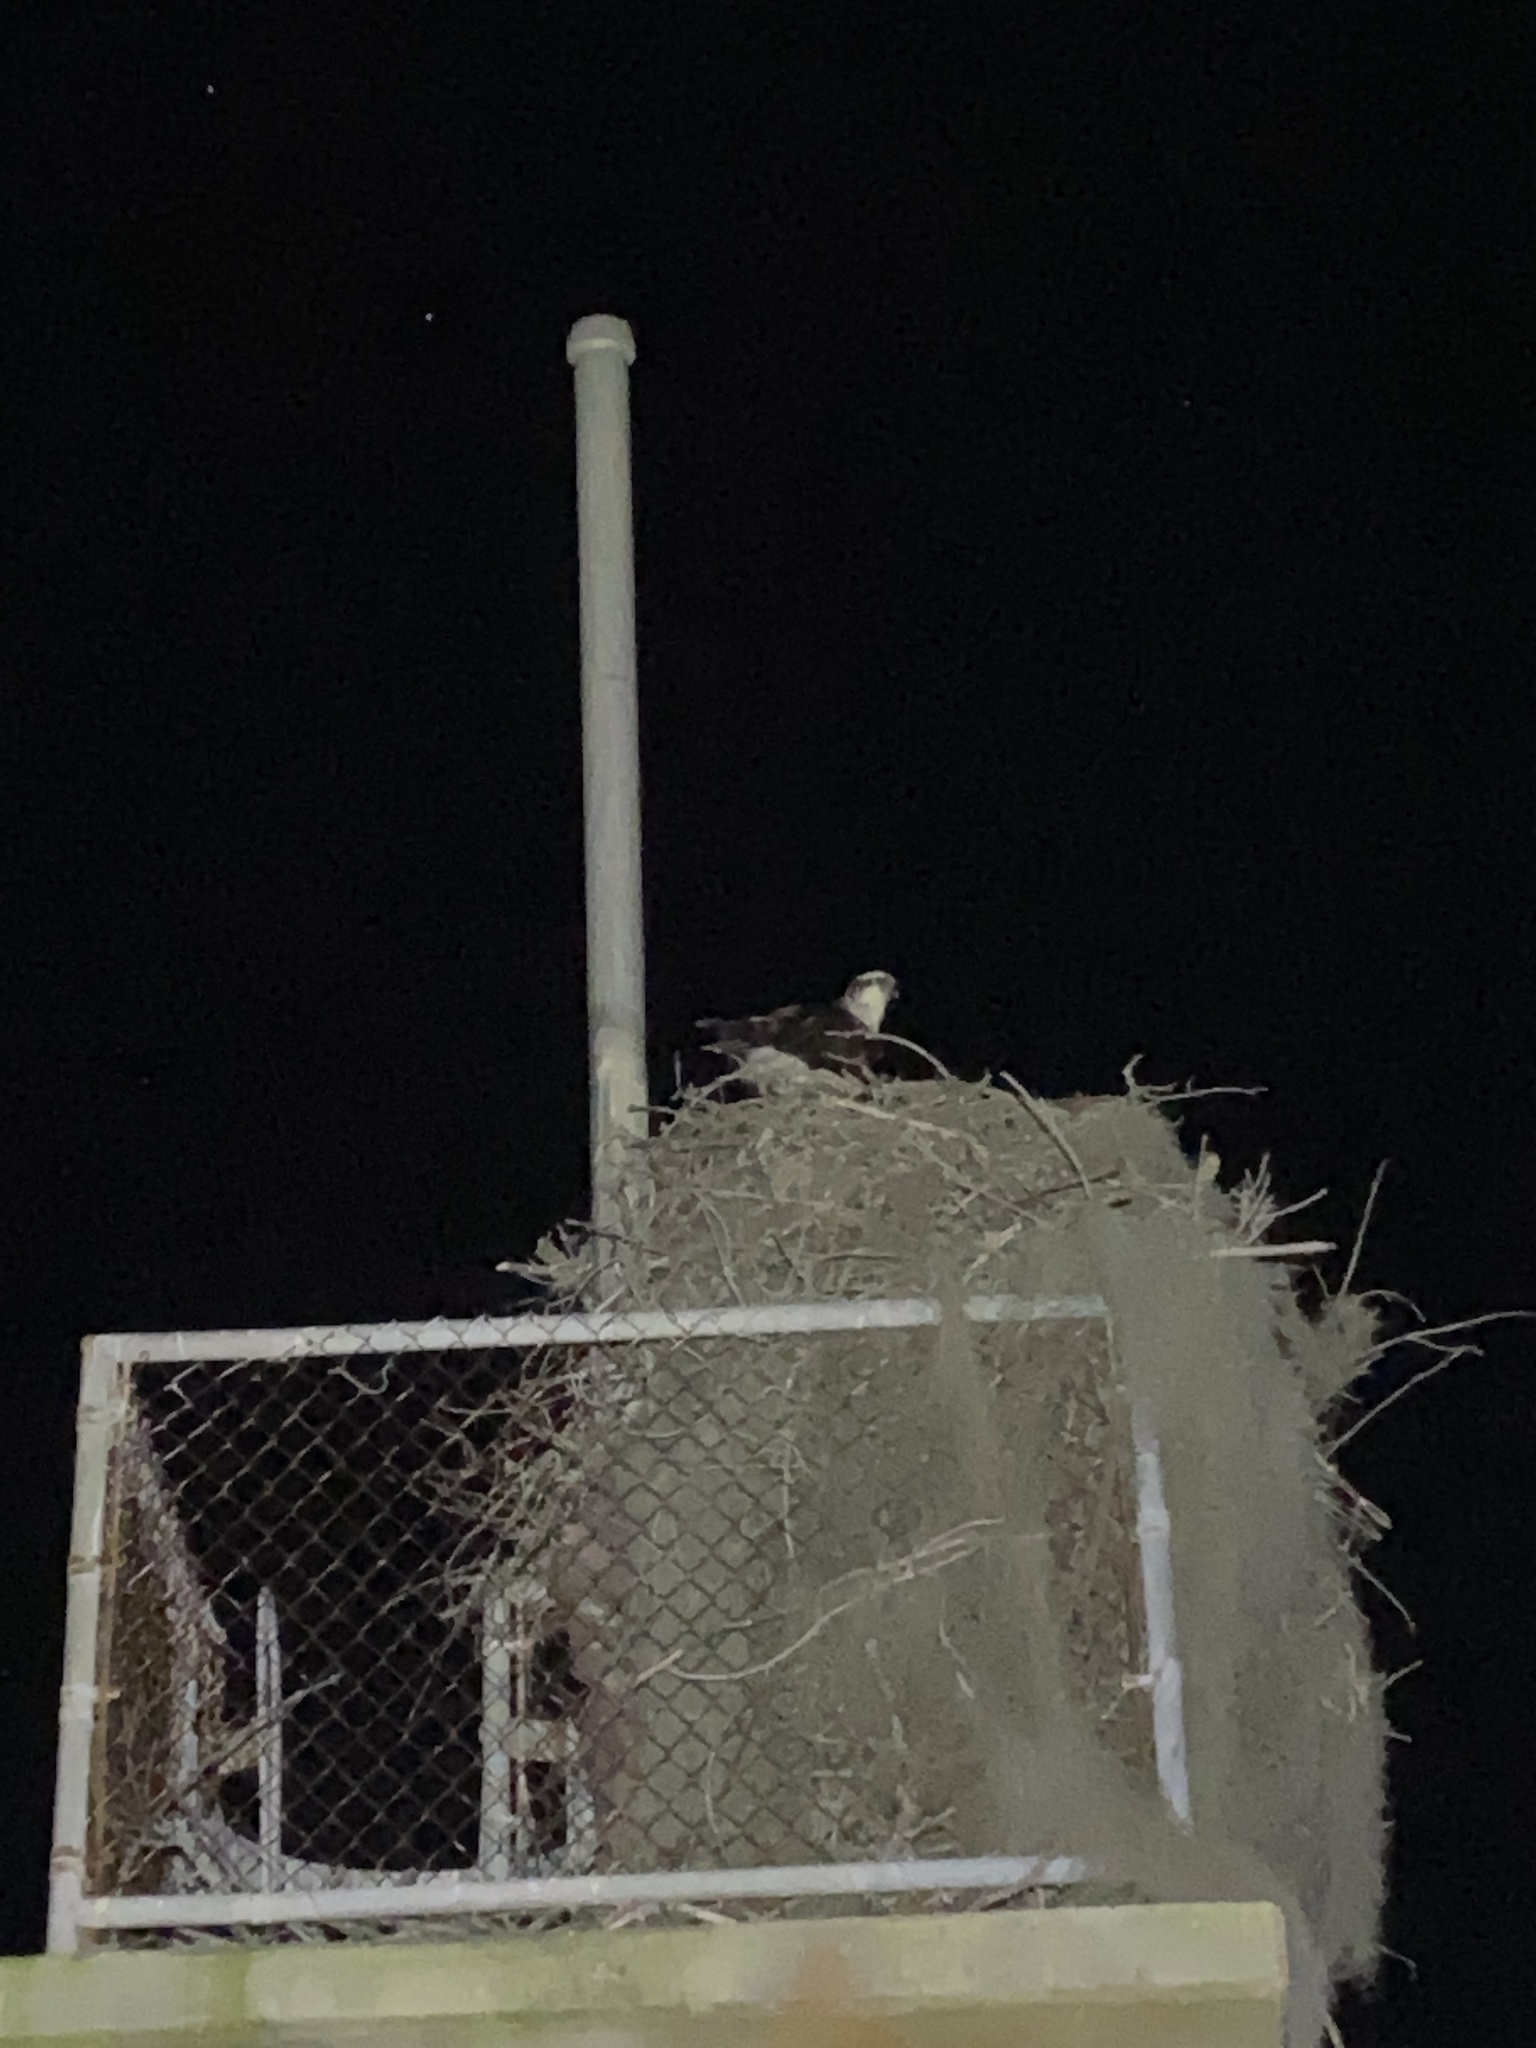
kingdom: Animalia
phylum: Chordata
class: Aves
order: Accipitriformes
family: Pandionidae
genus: Pandion
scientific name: Pandion haliaetus
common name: Osprey
